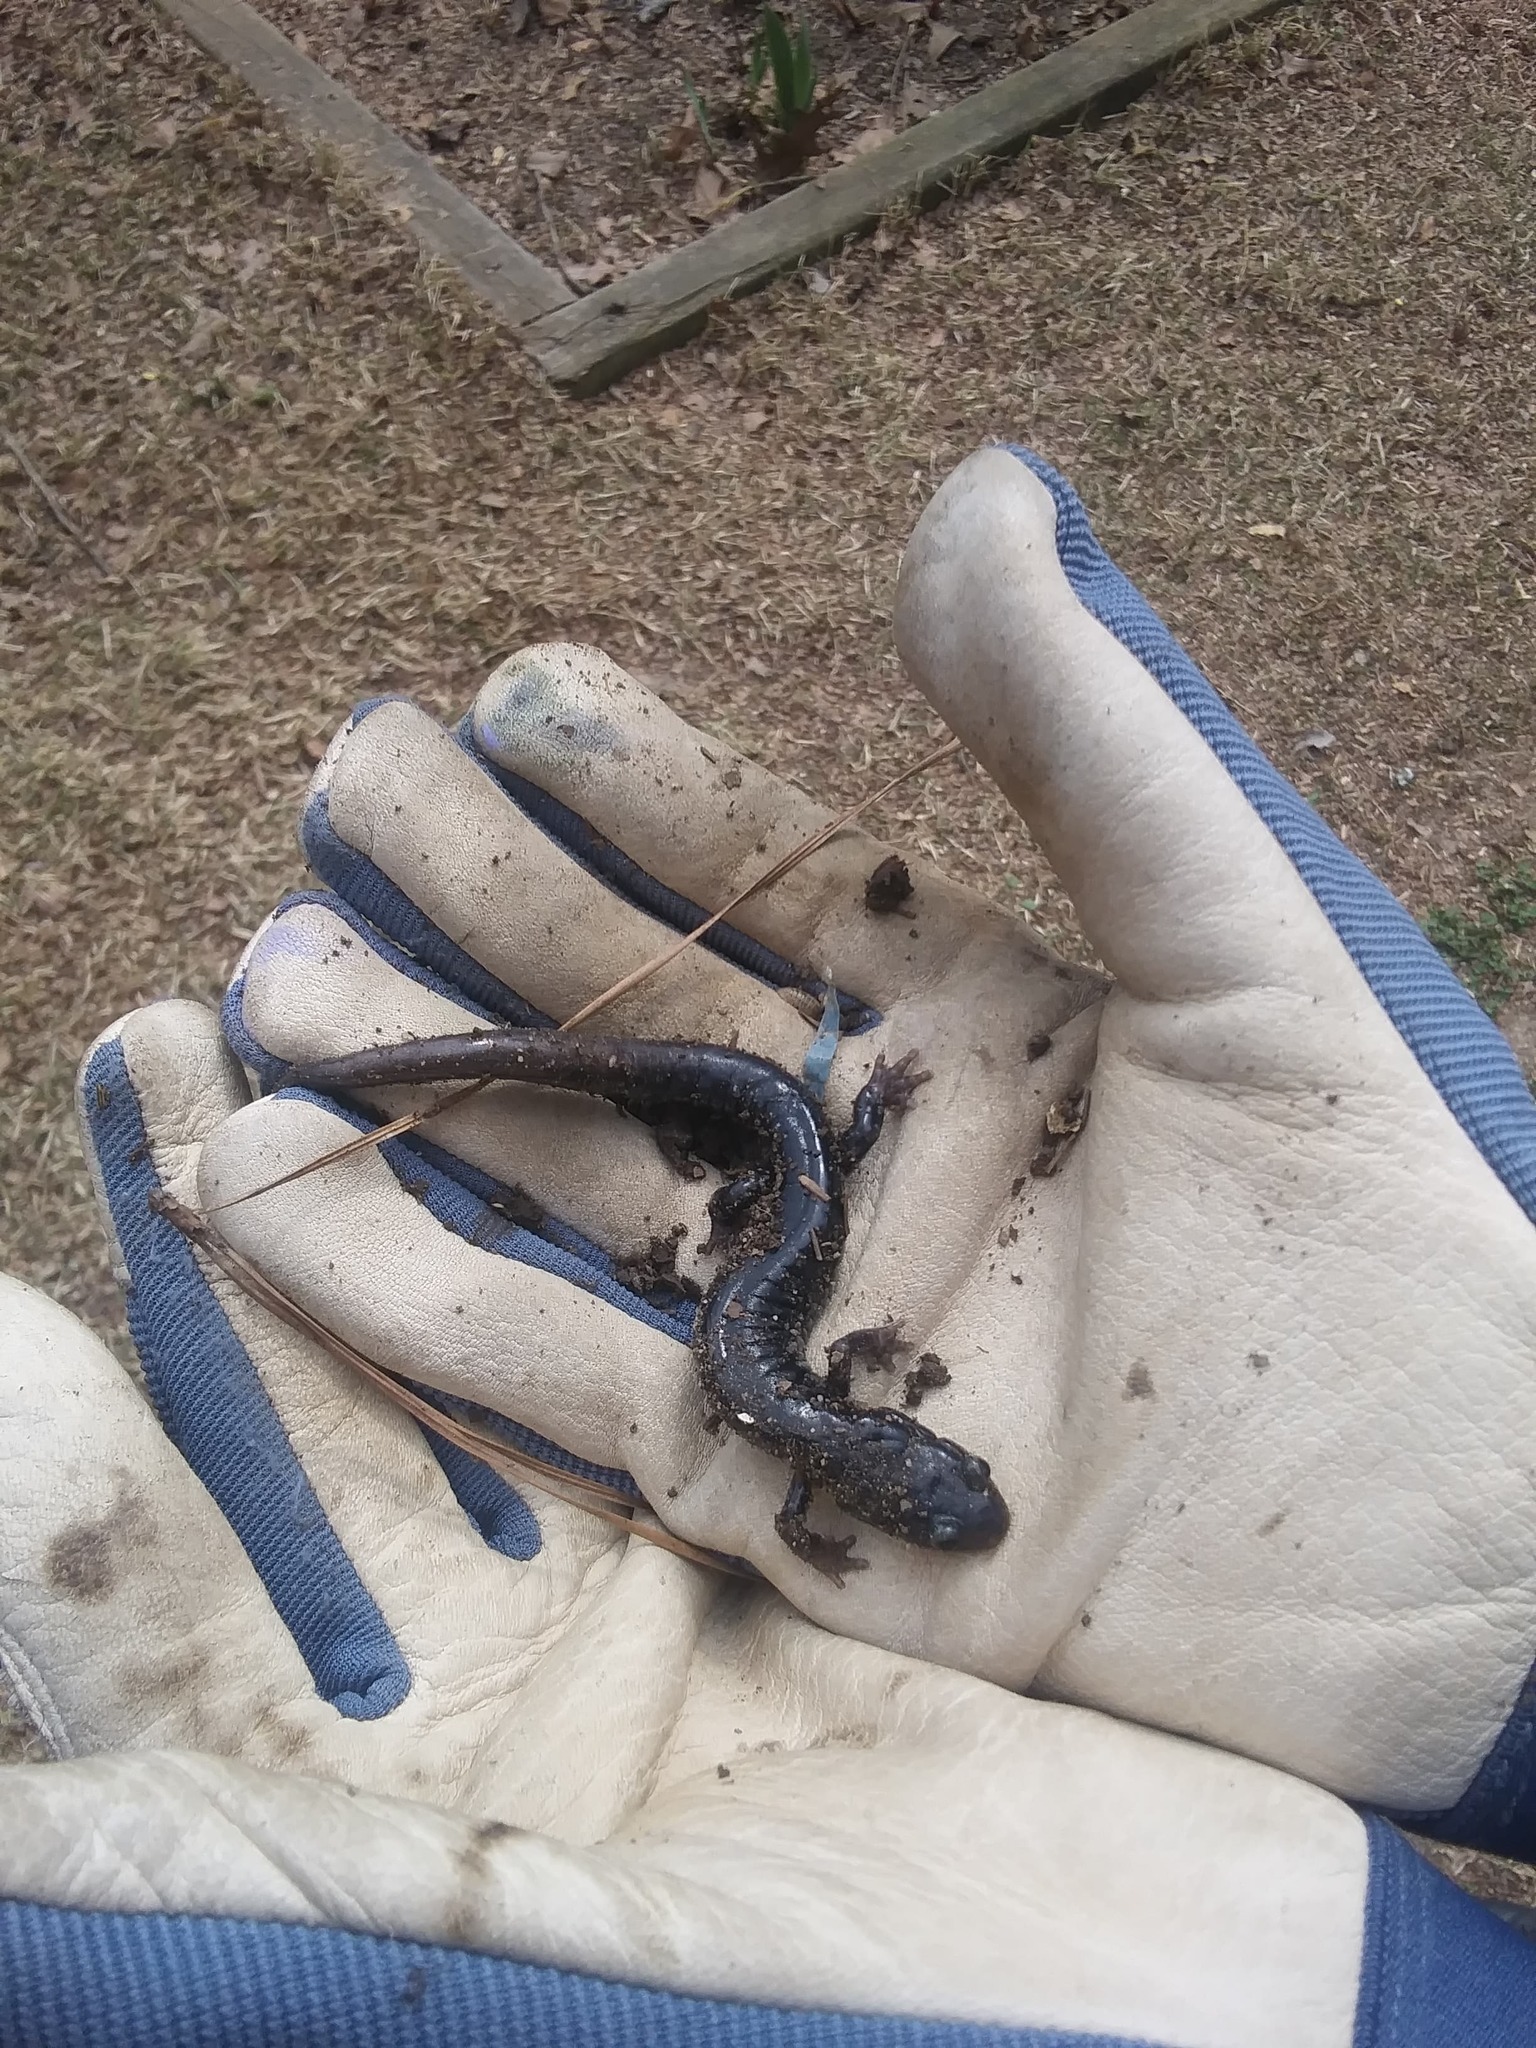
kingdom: Animalia
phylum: Chordata
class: Amphibia
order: Caudata
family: Plethodontidae
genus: Plethodon
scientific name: Plethodon glutinosus
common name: Northern slimy salamander
